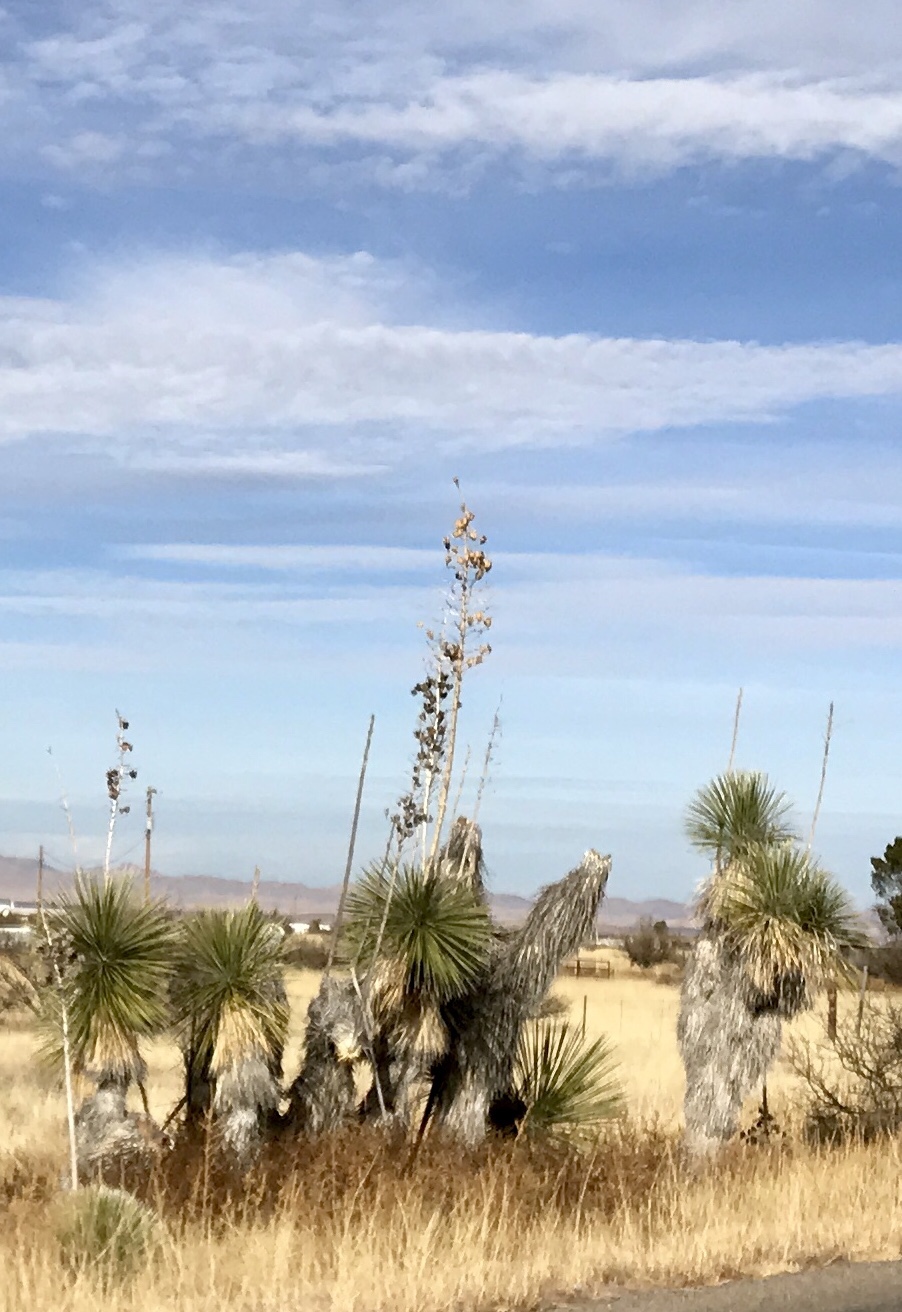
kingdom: Plantae
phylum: Tracheophyta
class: Liliopsida
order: Asparagales
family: Asparagaceae
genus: Yucca
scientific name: Yucca elata
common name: Palmella
